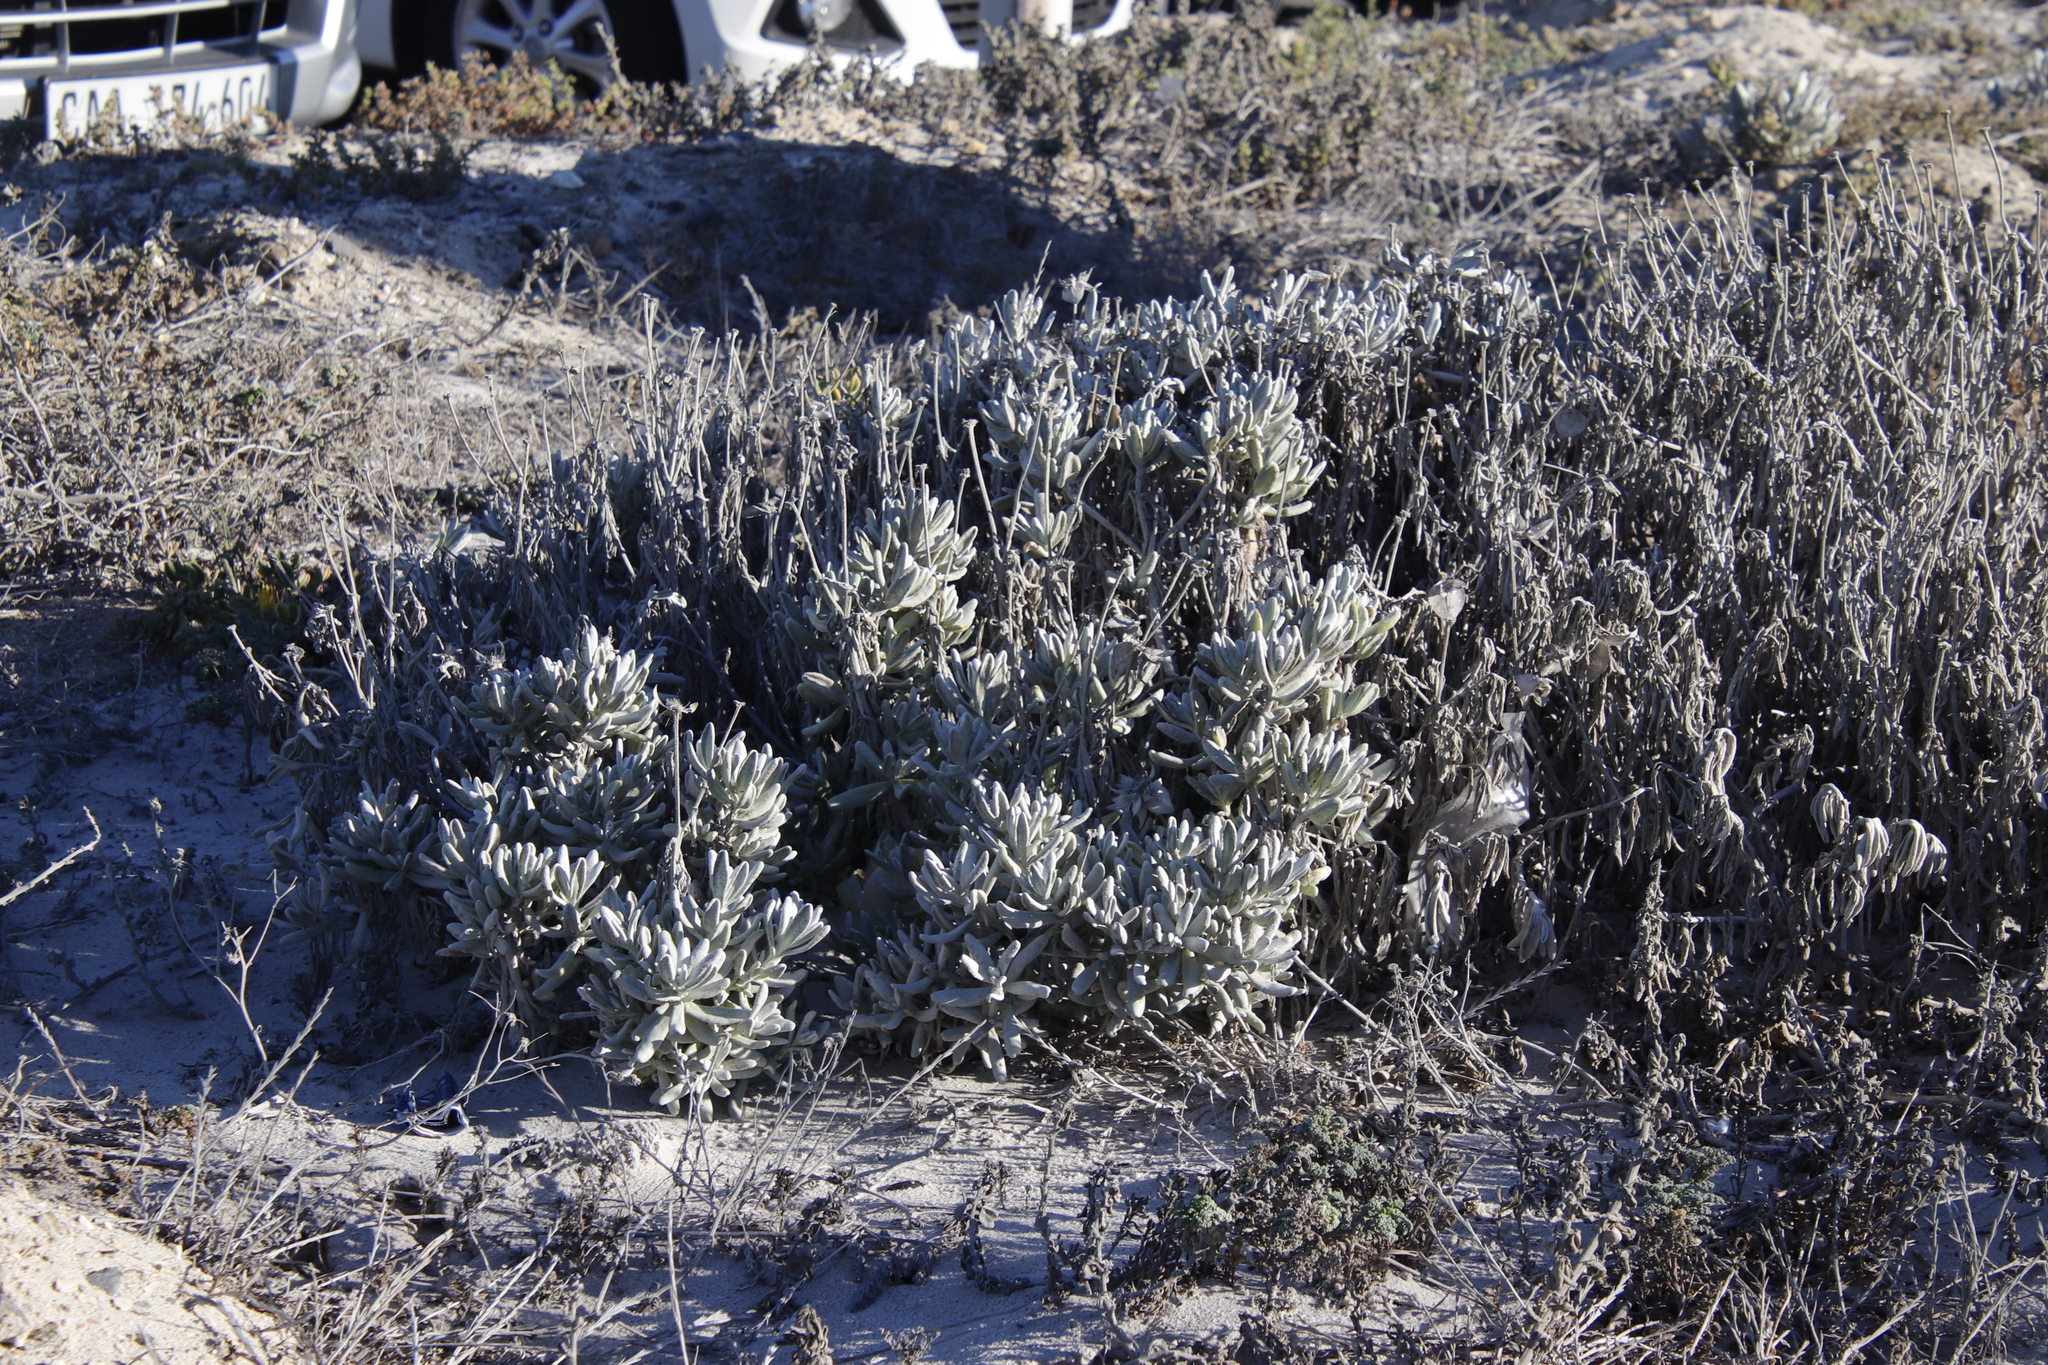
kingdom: Plantae
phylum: Tracheophyta
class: Magnoliopsida
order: Asterales
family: Asteraceae
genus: Didelta
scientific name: Didelta carnosa
